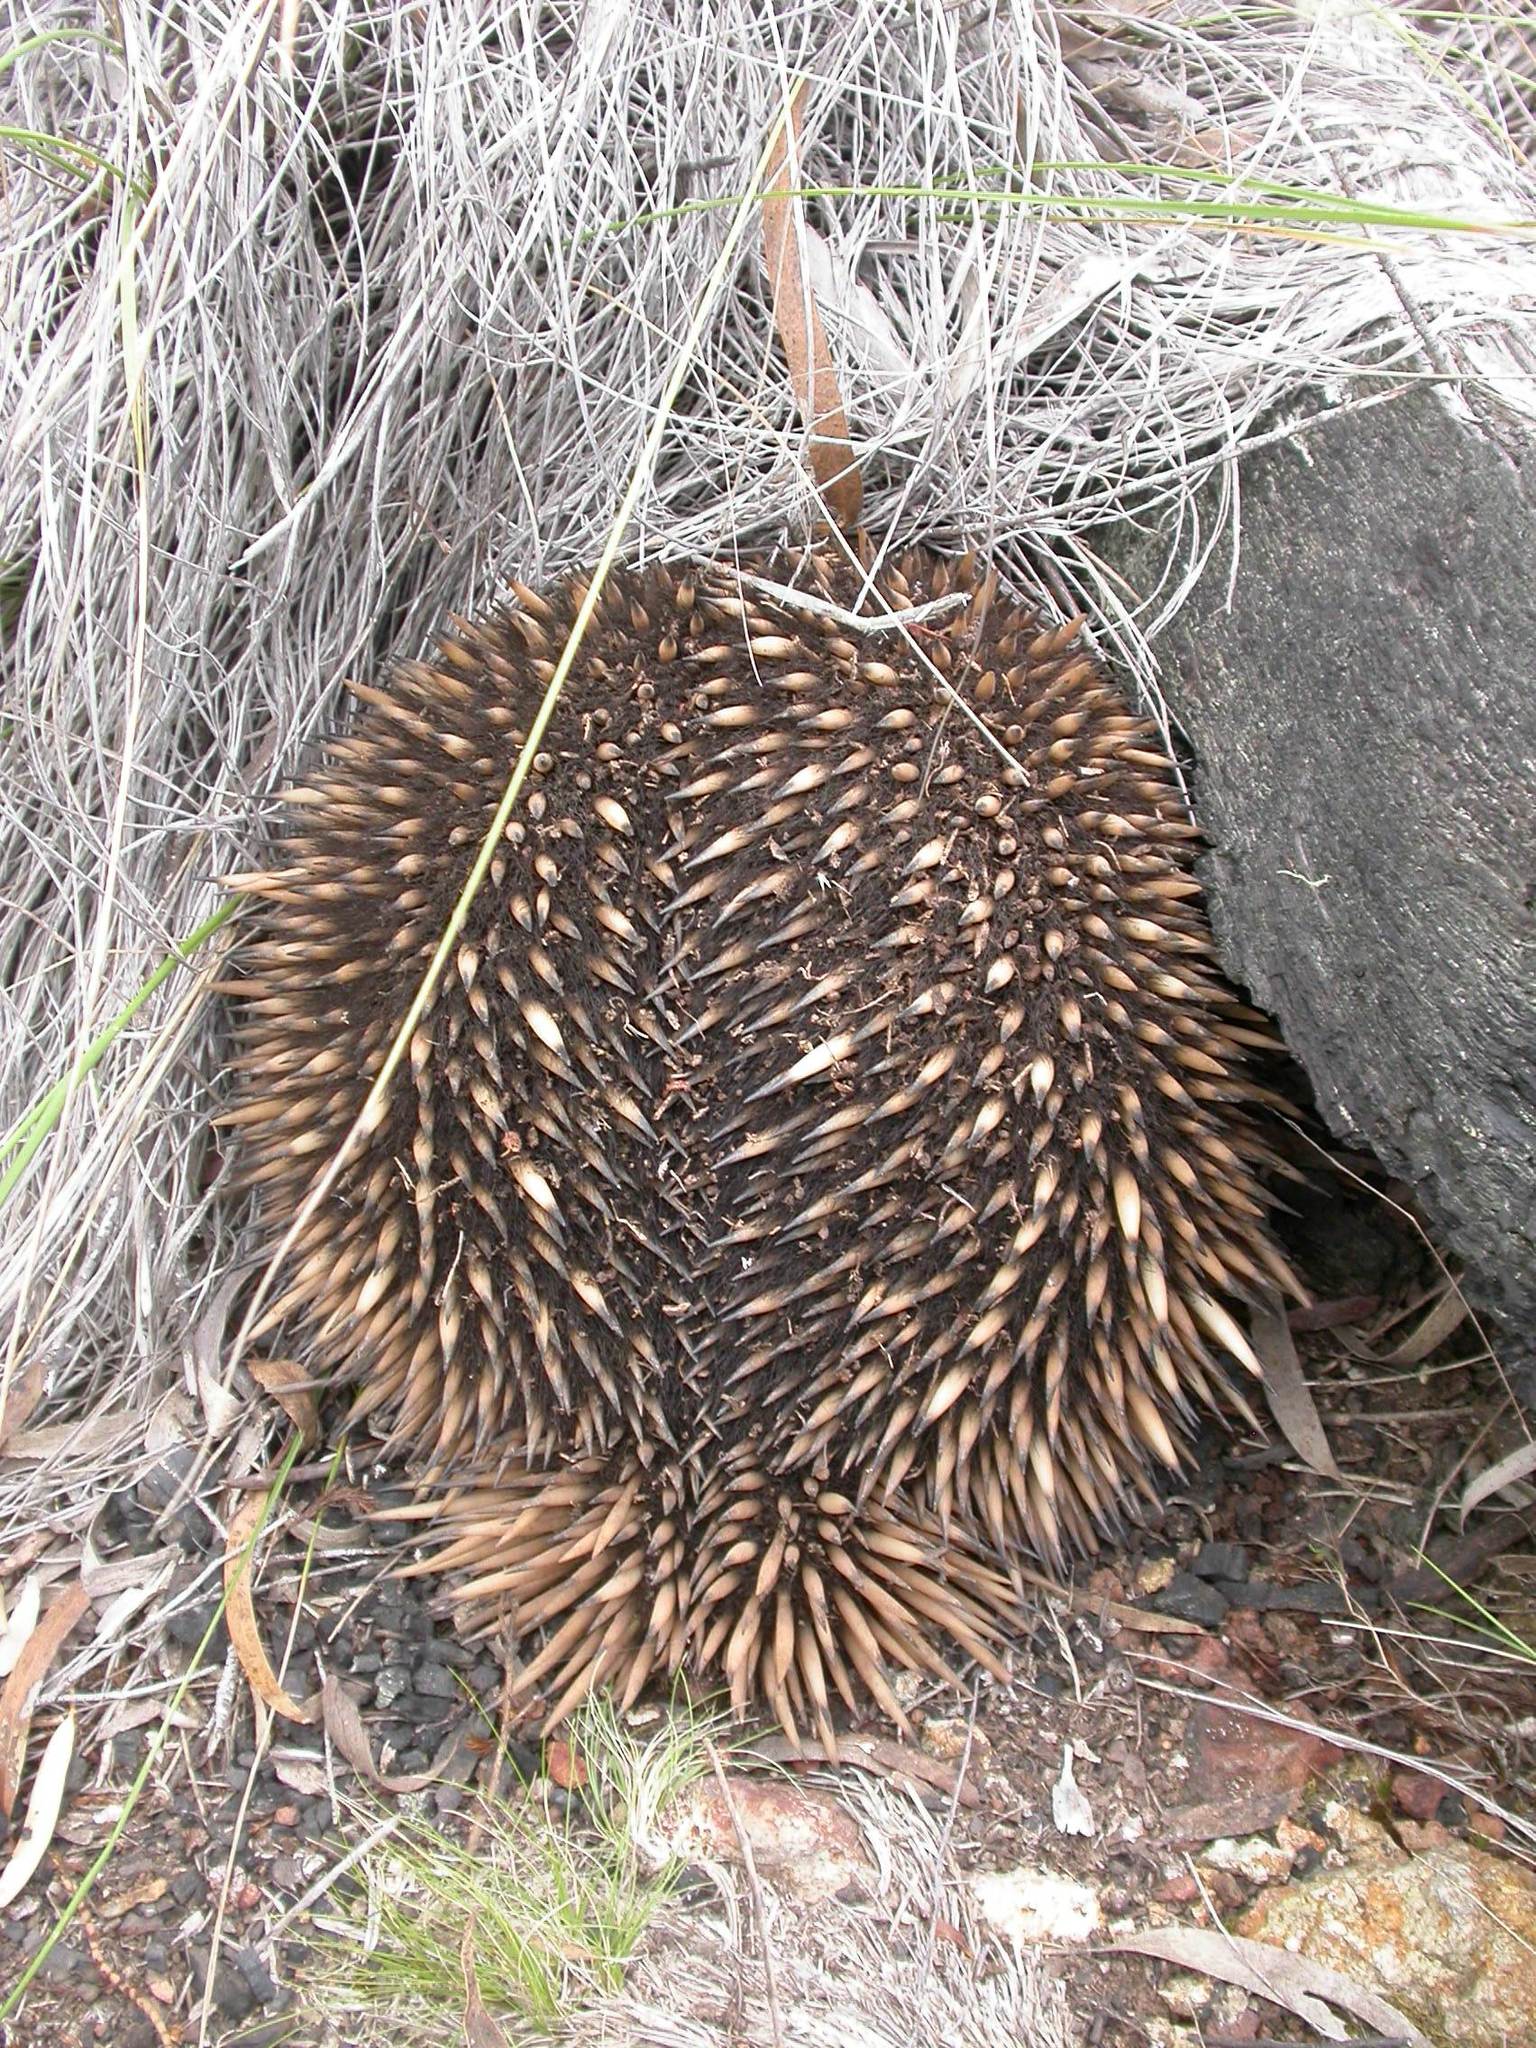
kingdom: Animalia
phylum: Chordata
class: Mammalia
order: Monotremata
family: Tachyglossidae
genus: Tachyglossus
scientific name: Tachyglossus aculeatus
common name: Short-beaked echidna
